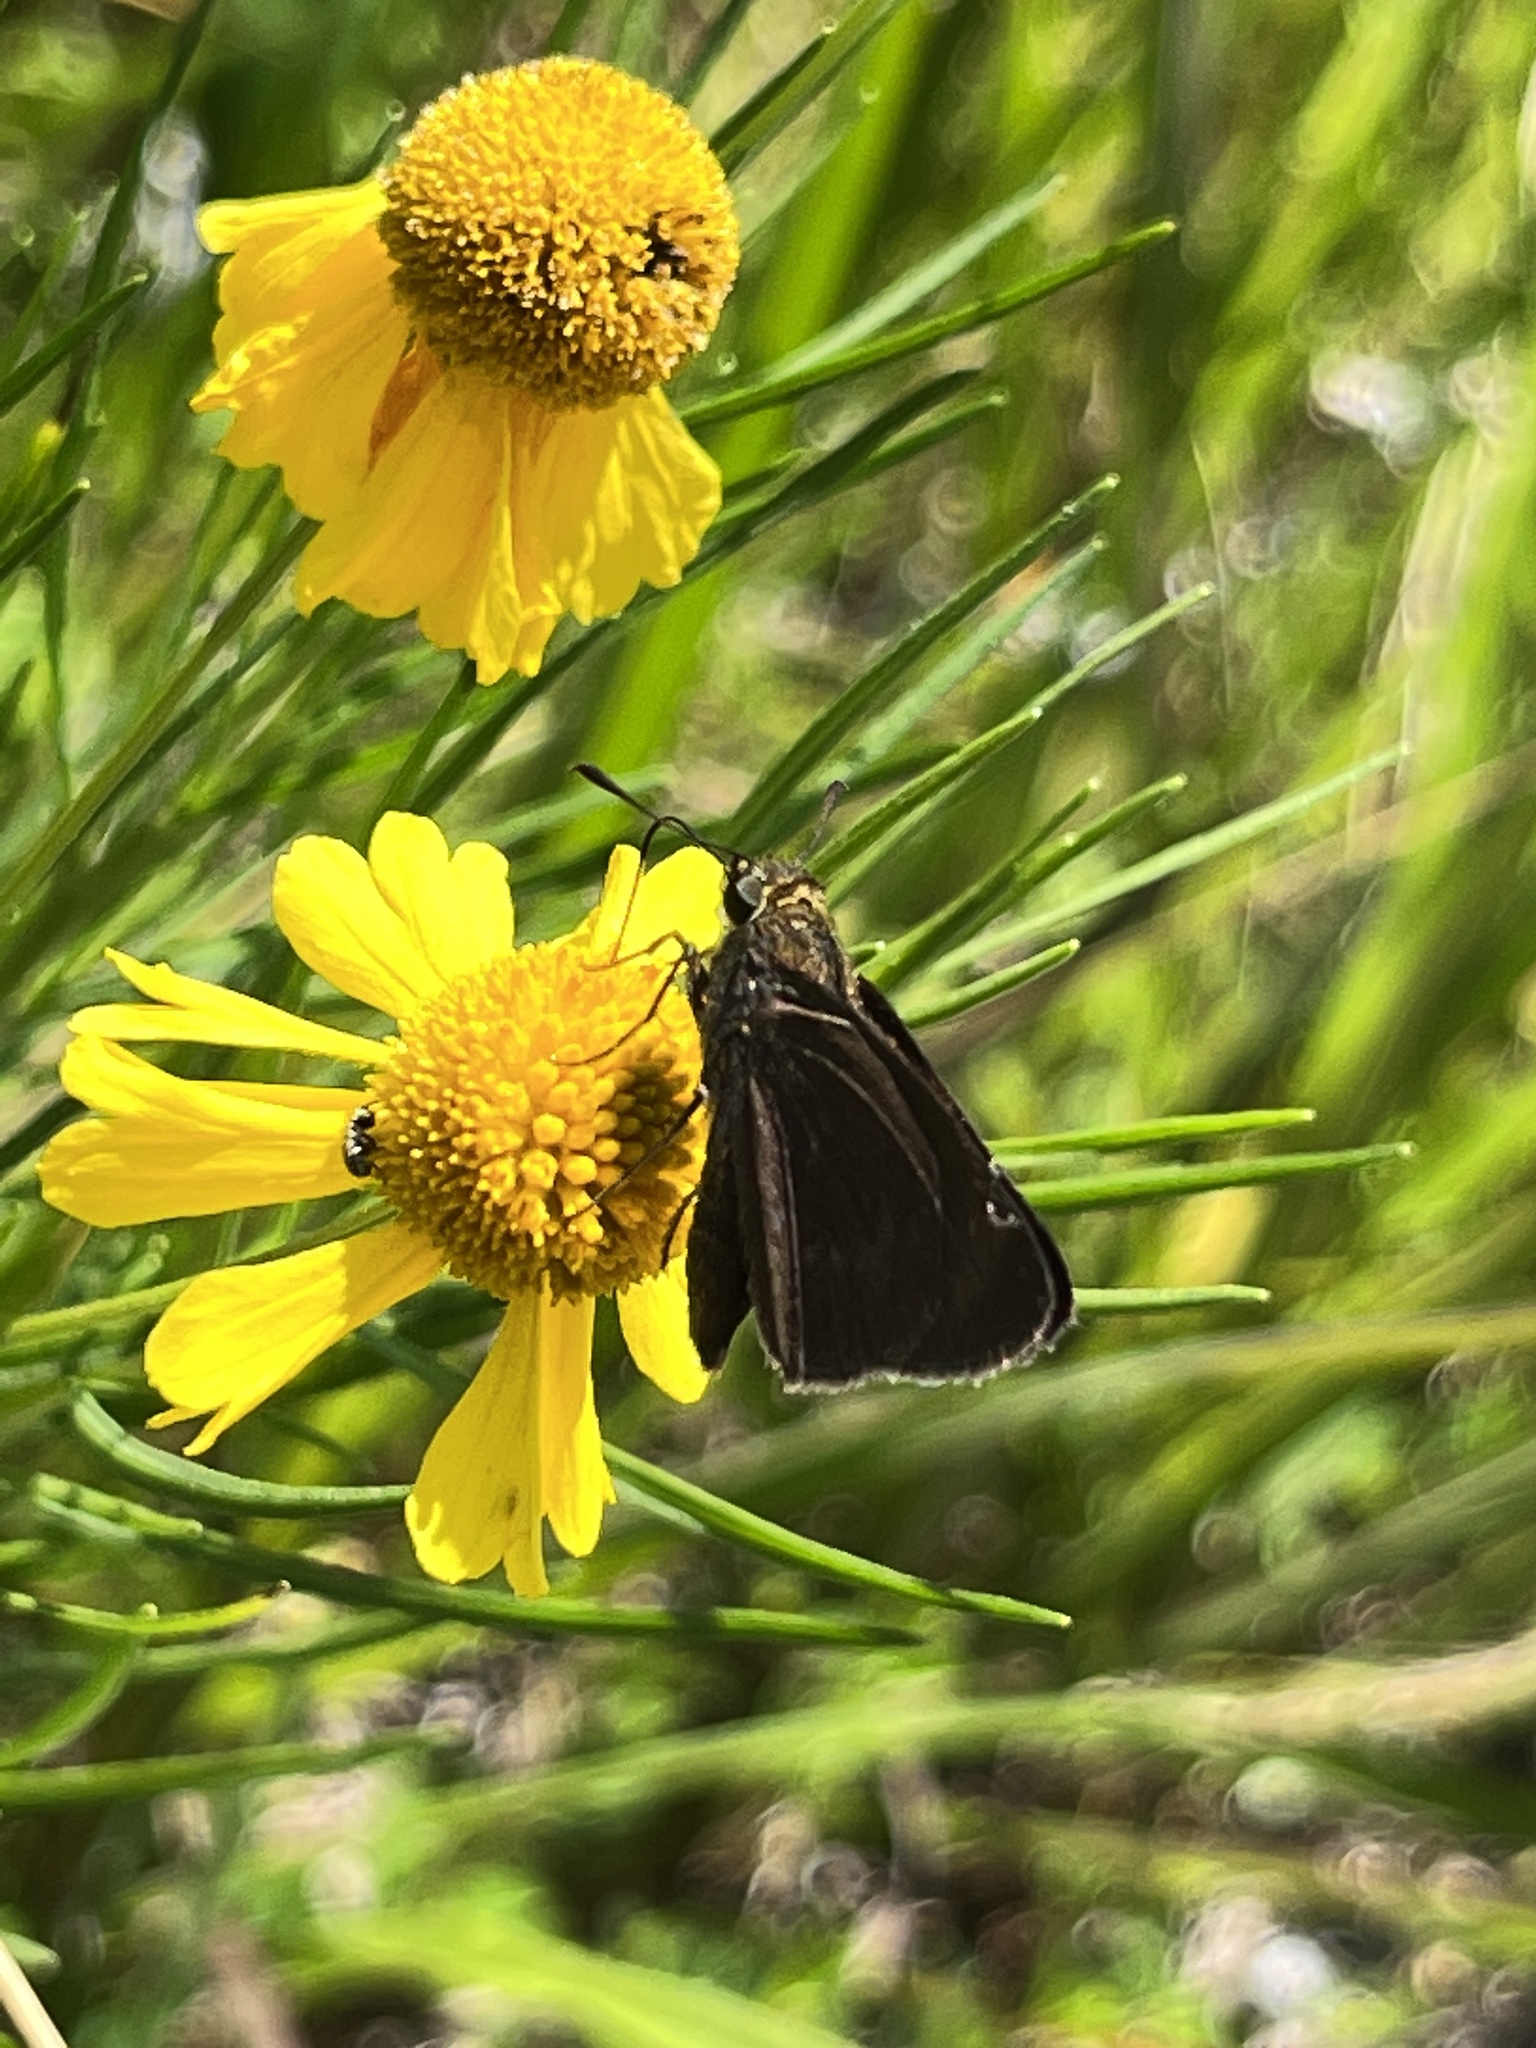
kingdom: Animalia
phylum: Arthropoda
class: Insecta
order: Lepidoptera
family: Hesperiidae
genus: Euphyes
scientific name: Euphyes vestris
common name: Dun skipper
